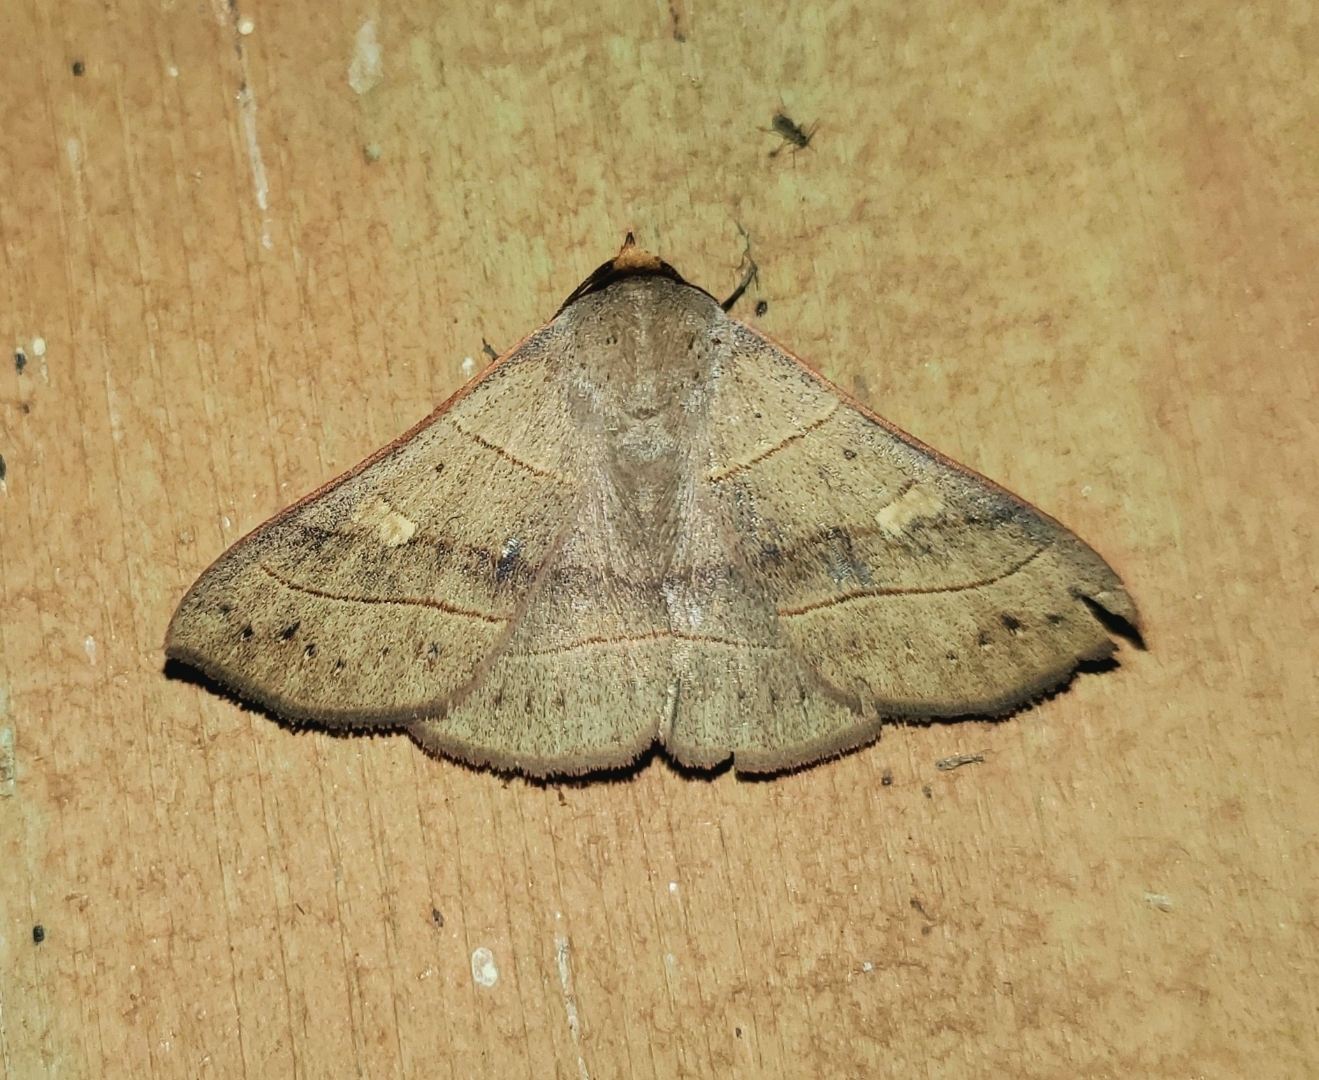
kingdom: Animalia
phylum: Arthropoda
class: Insecta
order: Lepidoptera
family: Erebidae
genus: Panopoda
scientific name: Panopoda rufimargo
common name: Red-lined panopoda moth
